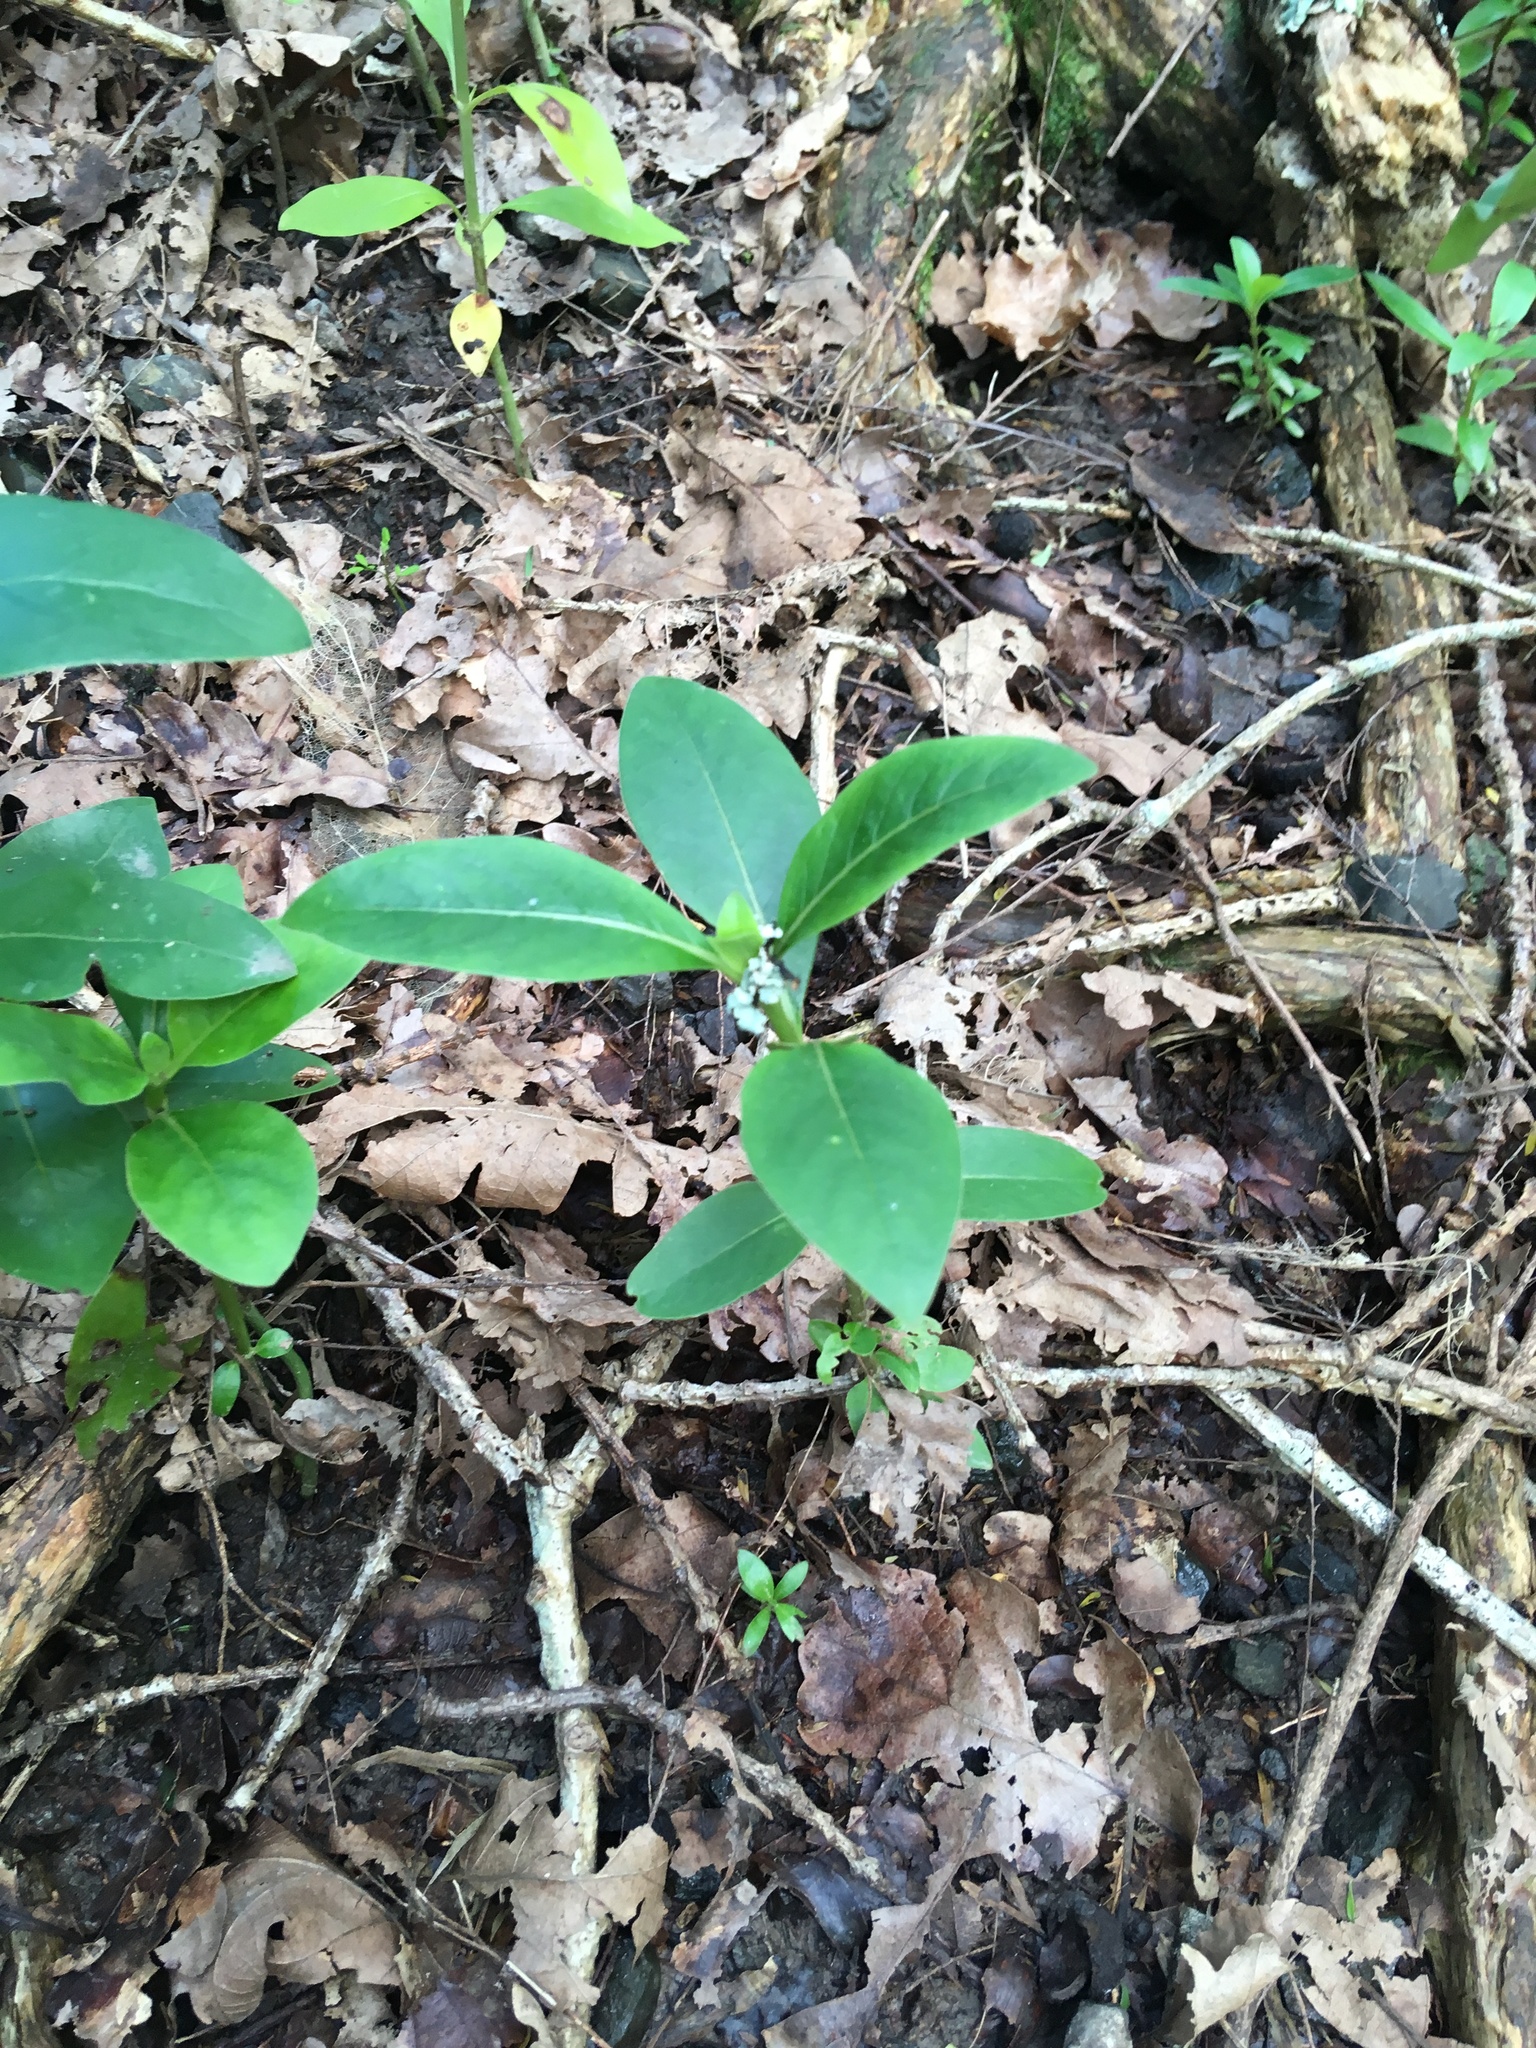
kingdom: Plantae
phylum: Tracheophyta
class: Magnoliopsida
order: Gentianales
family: Rubiaceae
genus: Coprosma
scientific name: Coprosma robusta
